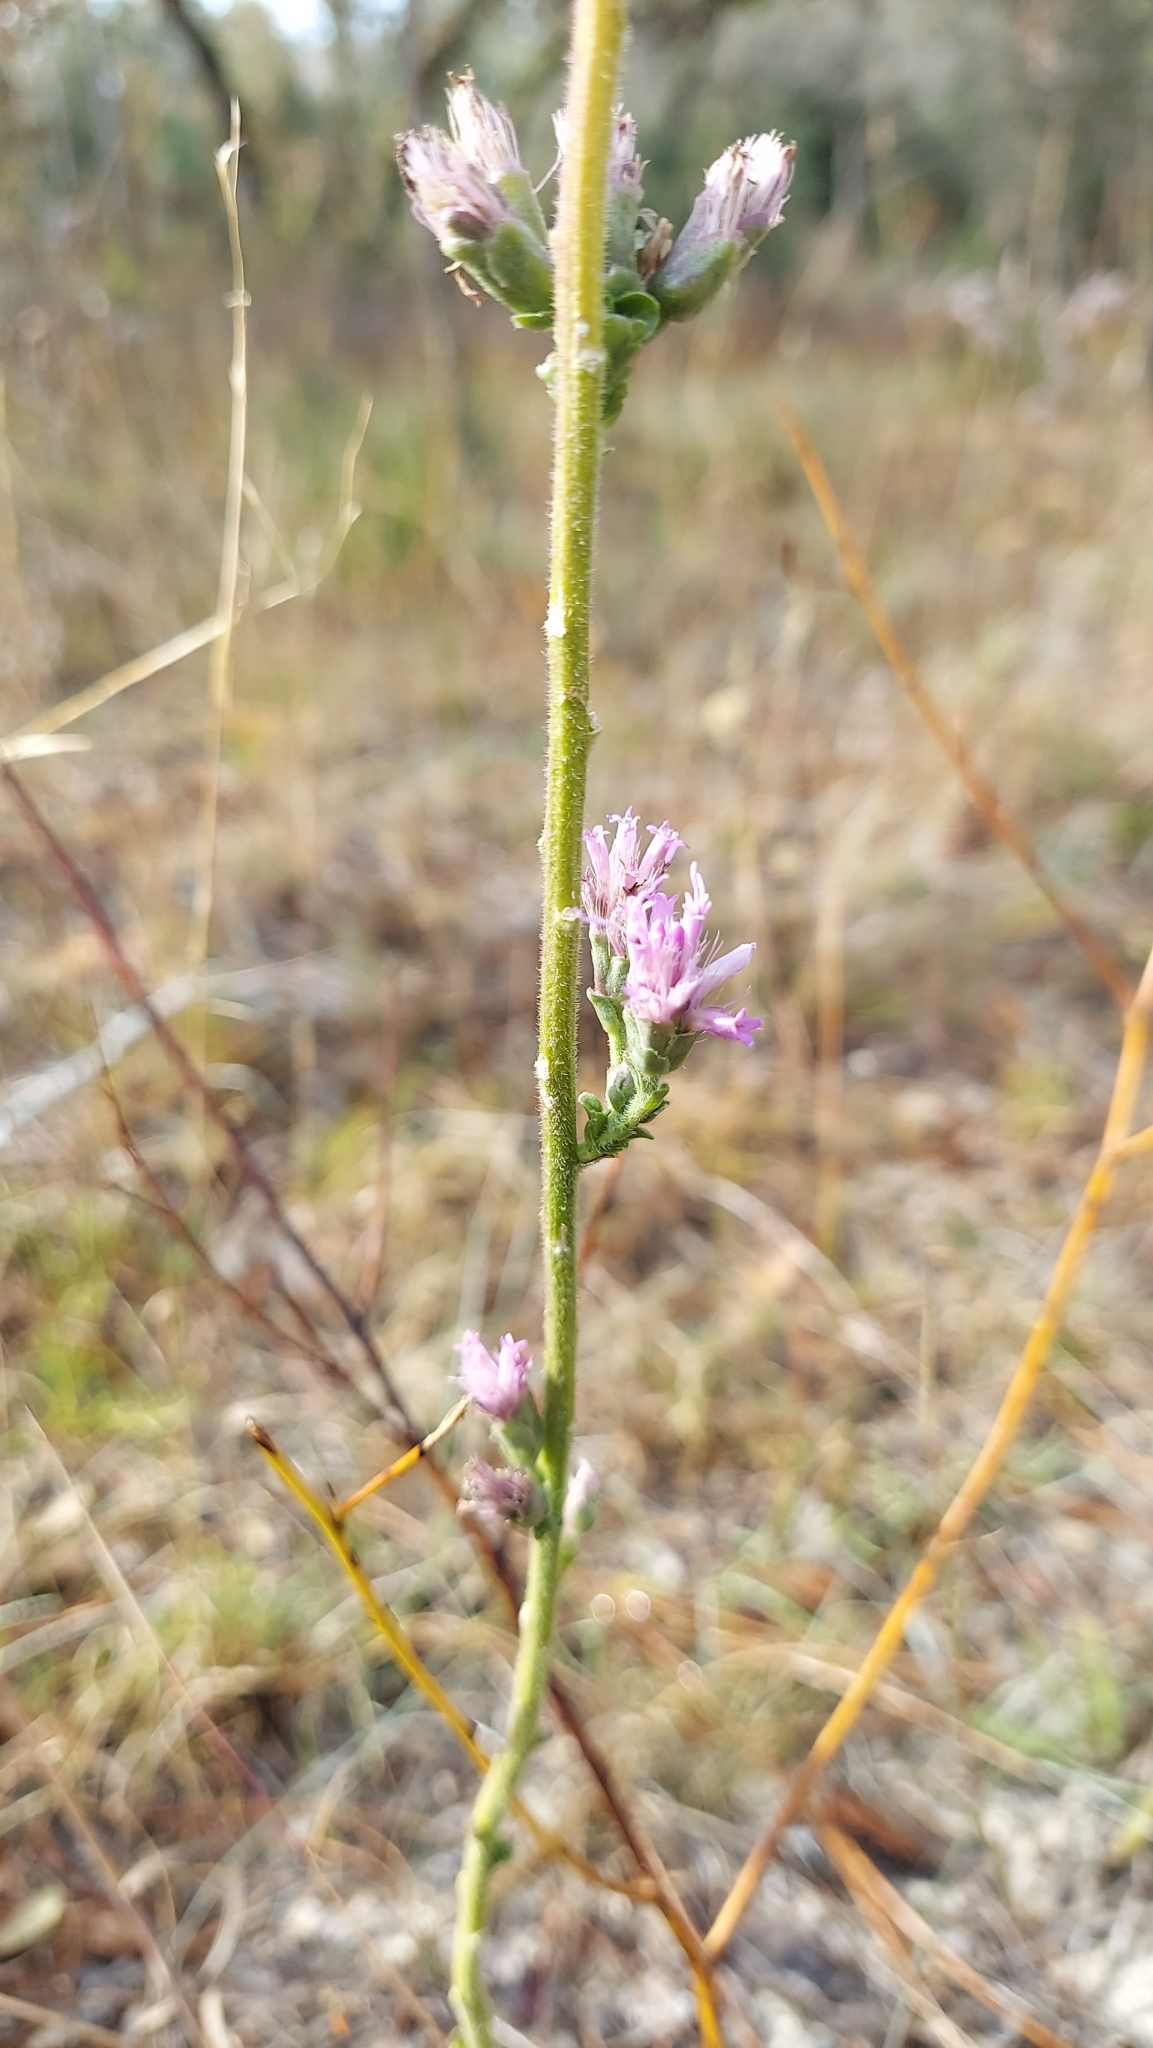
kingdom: Plantae
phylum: Tracheophyta
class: Magnoliopsida
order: Asterales
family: Asteraceae
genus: Carphephorus
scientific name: Carphephorus corymbosus
